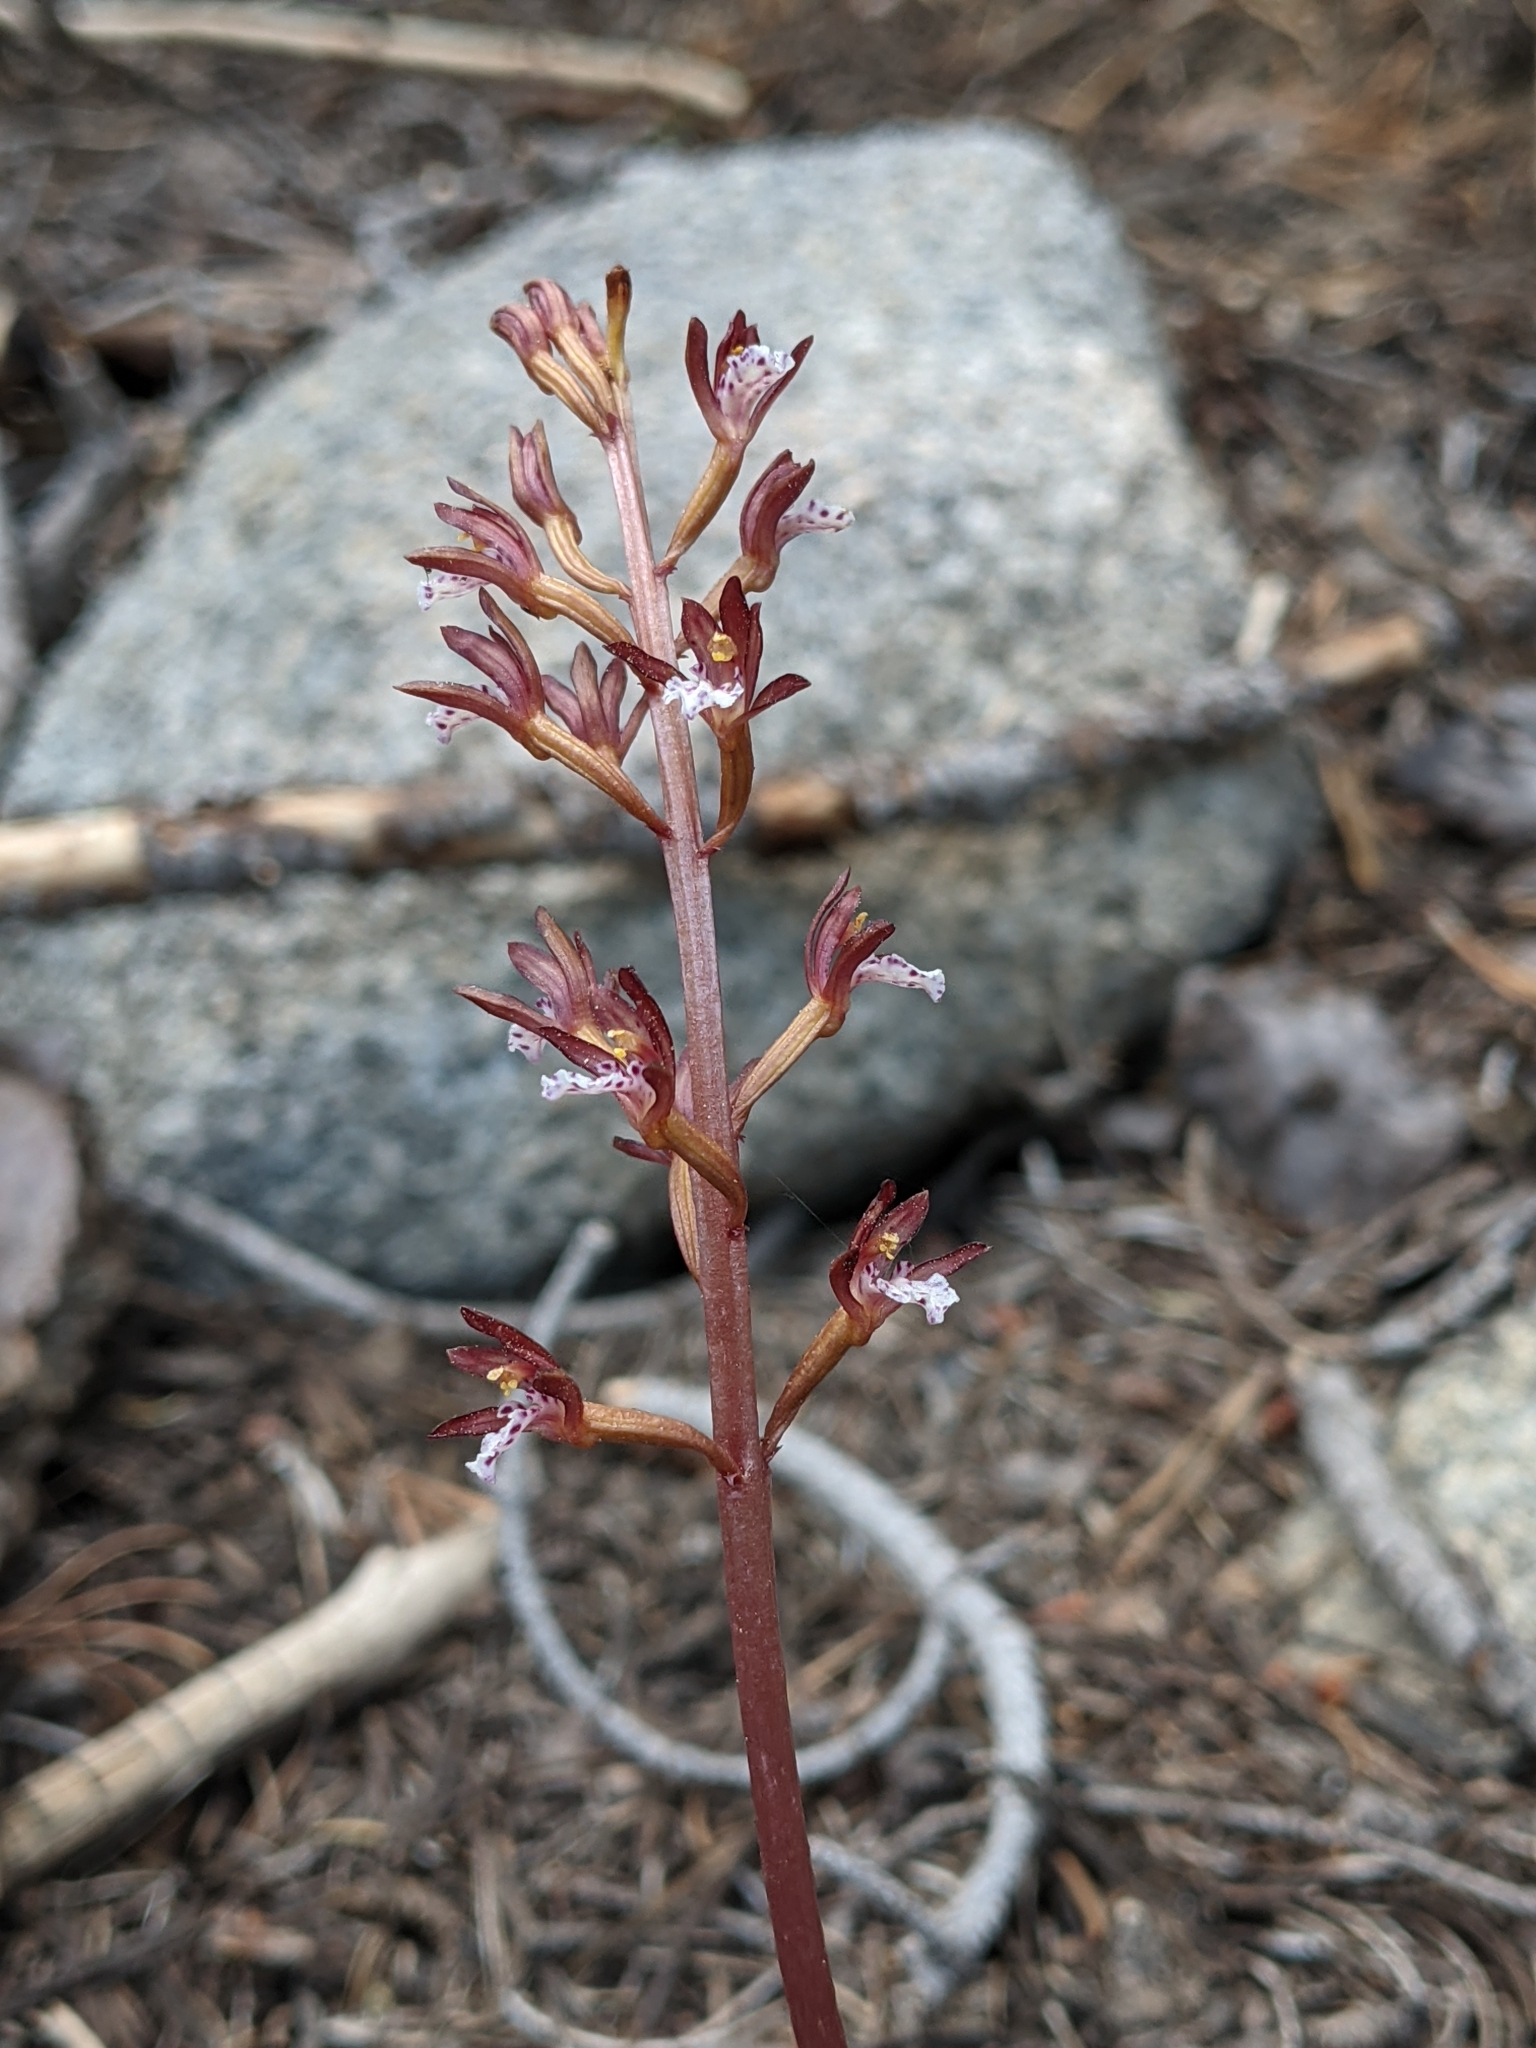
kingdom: Plantae
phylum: Tracheophyta
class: Liliopsida
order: Asparagales
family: Orchidaceae
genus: Corallorhiza
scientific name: Corallorhiza maculata
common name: Spotted coralroot
